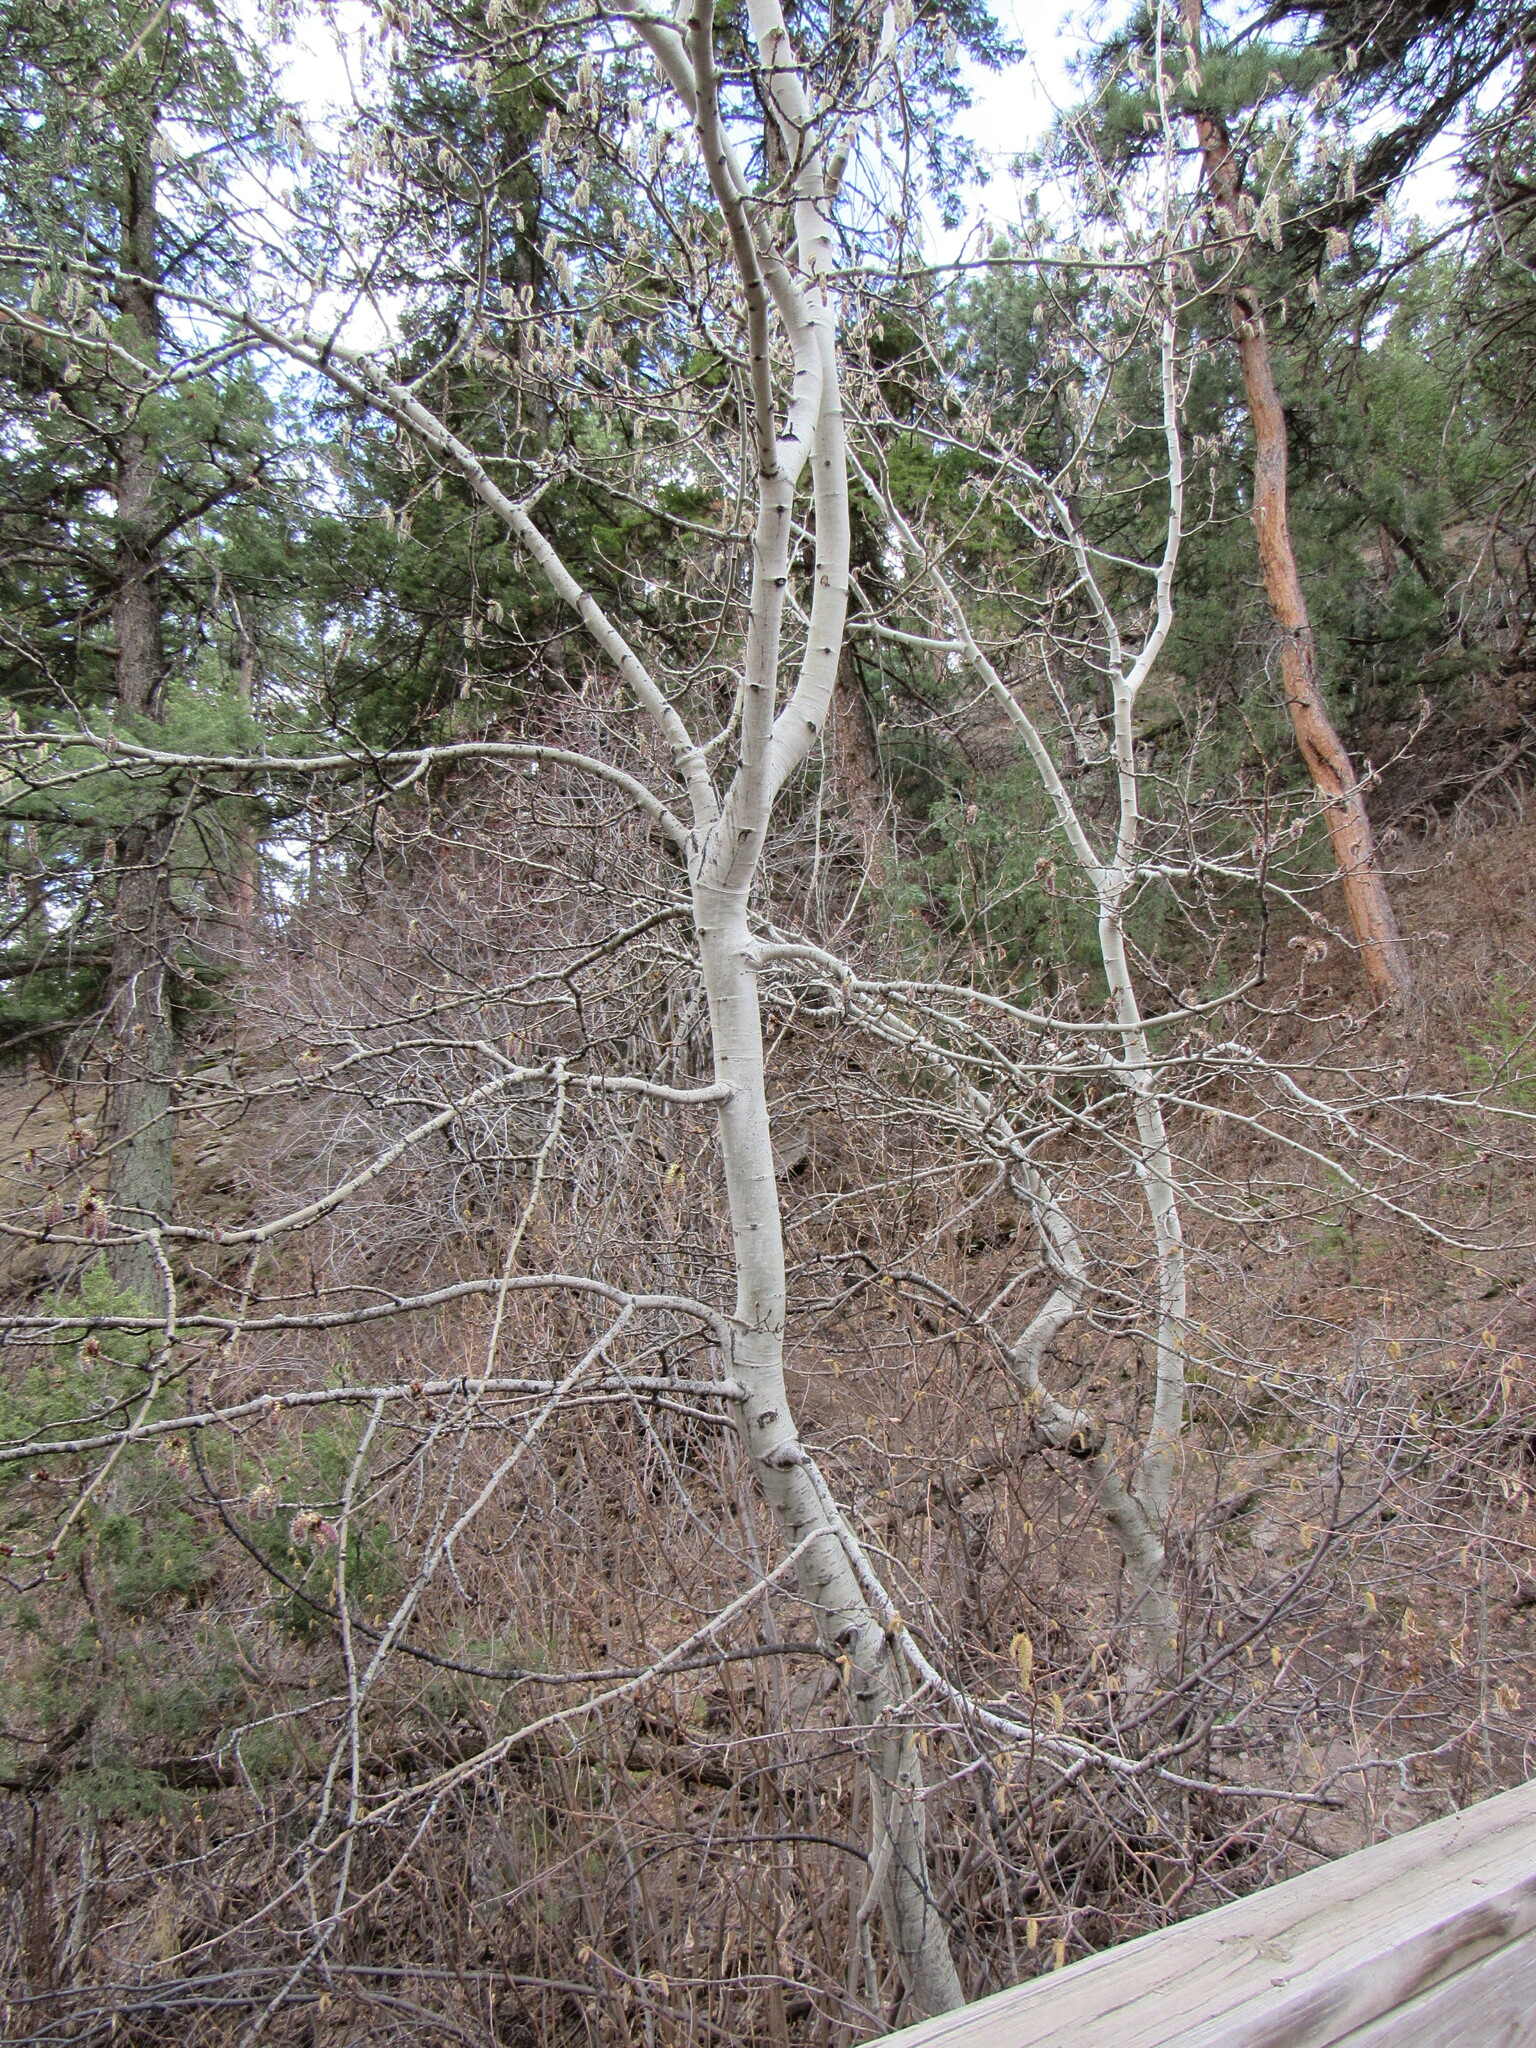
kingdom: Plantae
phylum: Tracheophyta
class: Magnoliopsida
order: Malpighiales
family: Salicaceae
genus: Populus
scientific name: Populus tremuloides
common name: Quaking aspen
